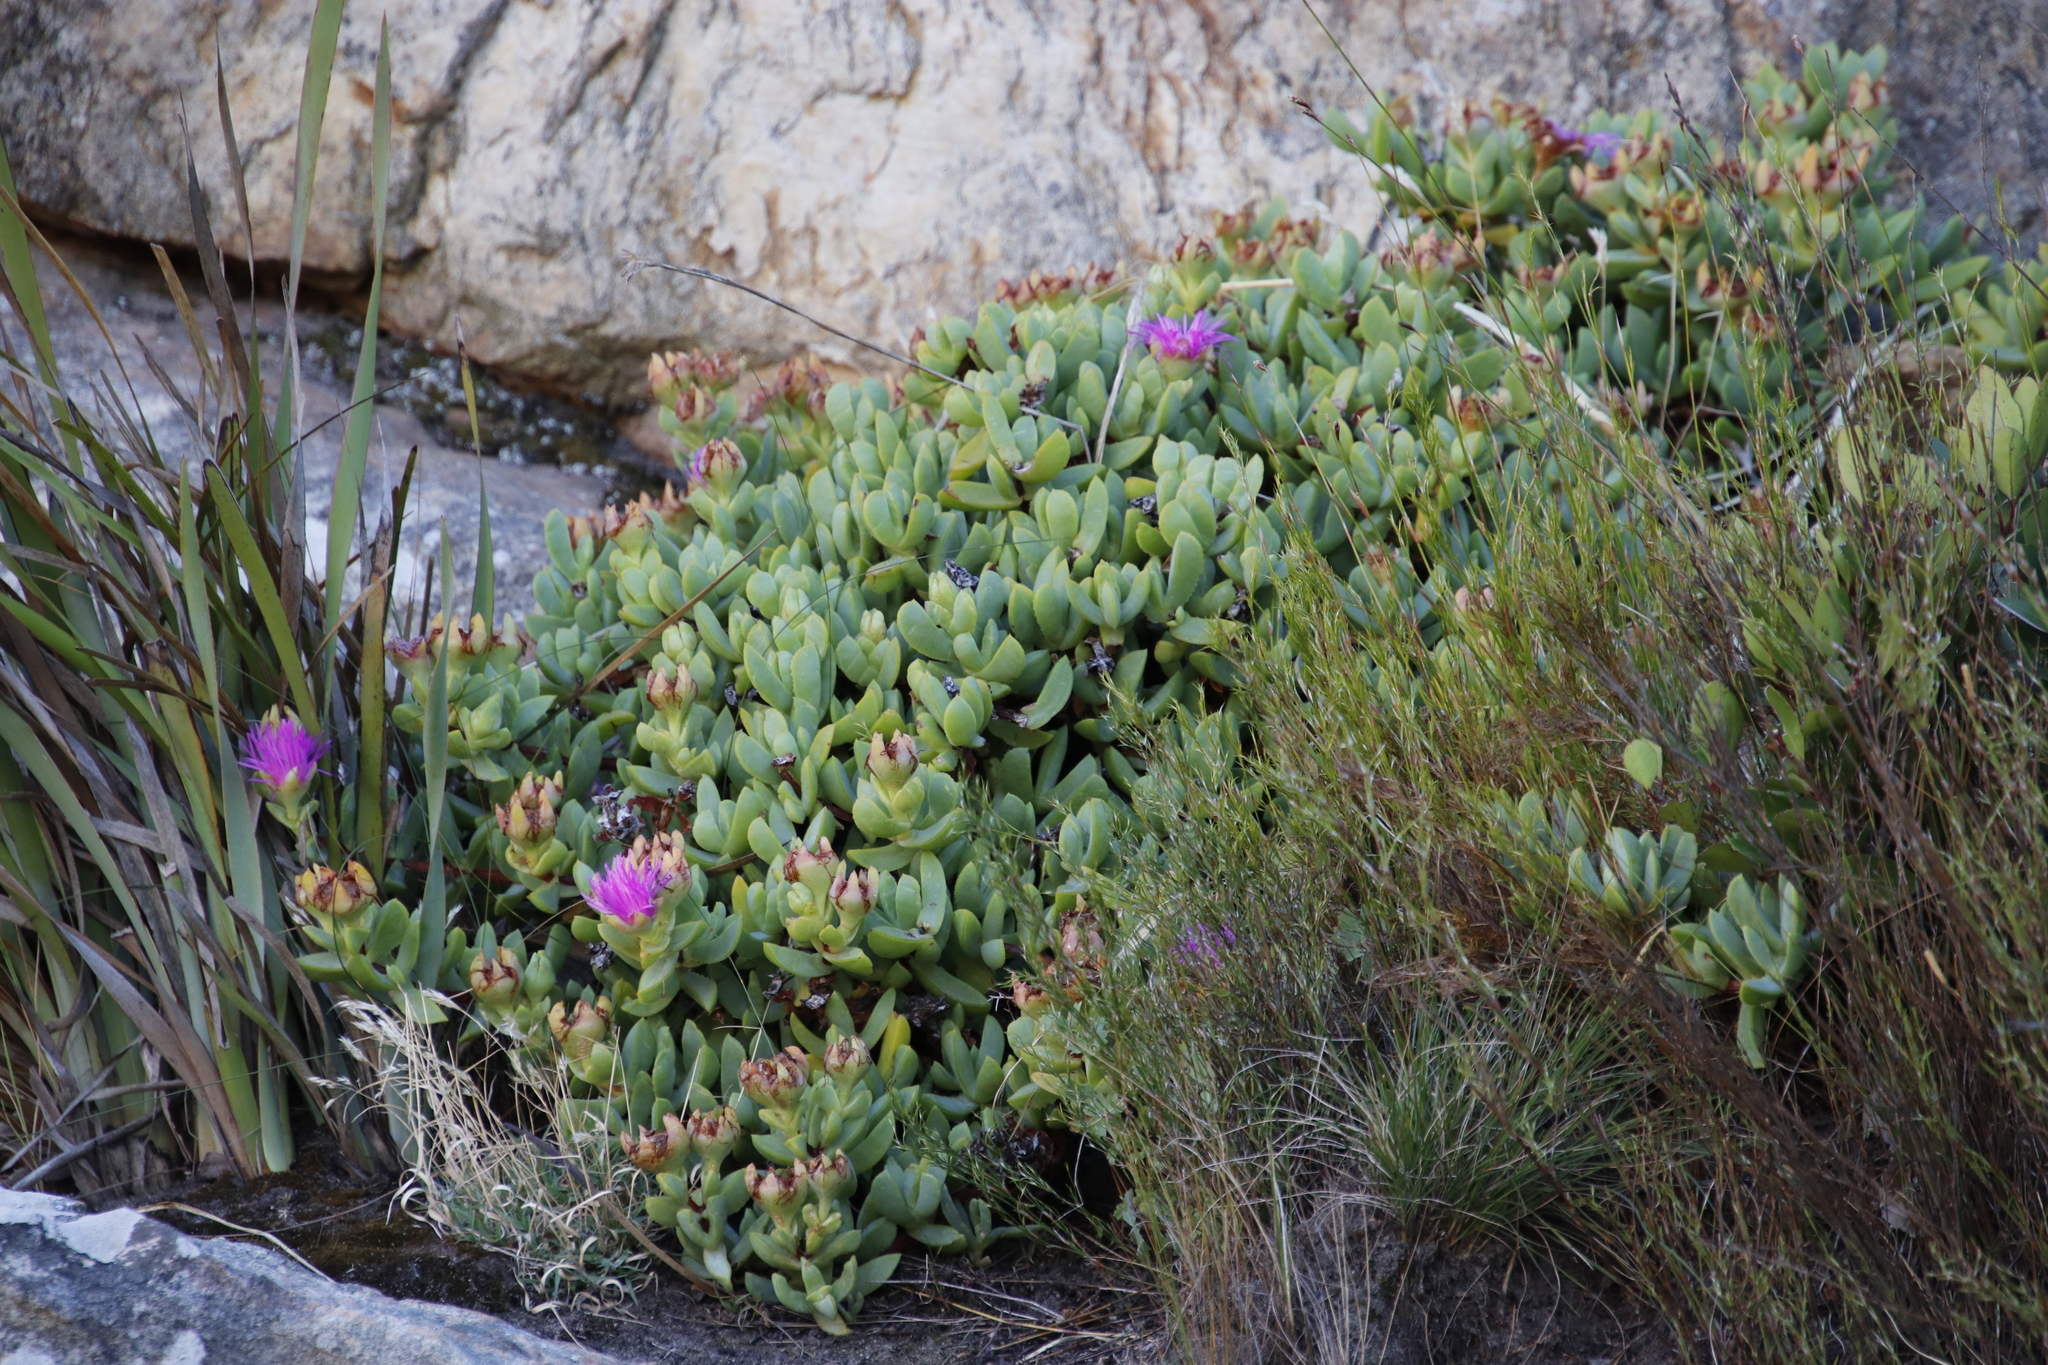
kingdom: Plantae
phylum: Tracheophyta
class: Magnoliopsida
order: Caryophyllales
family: Aizoaceae
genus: Erepsia
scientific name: Erepsia lacera
